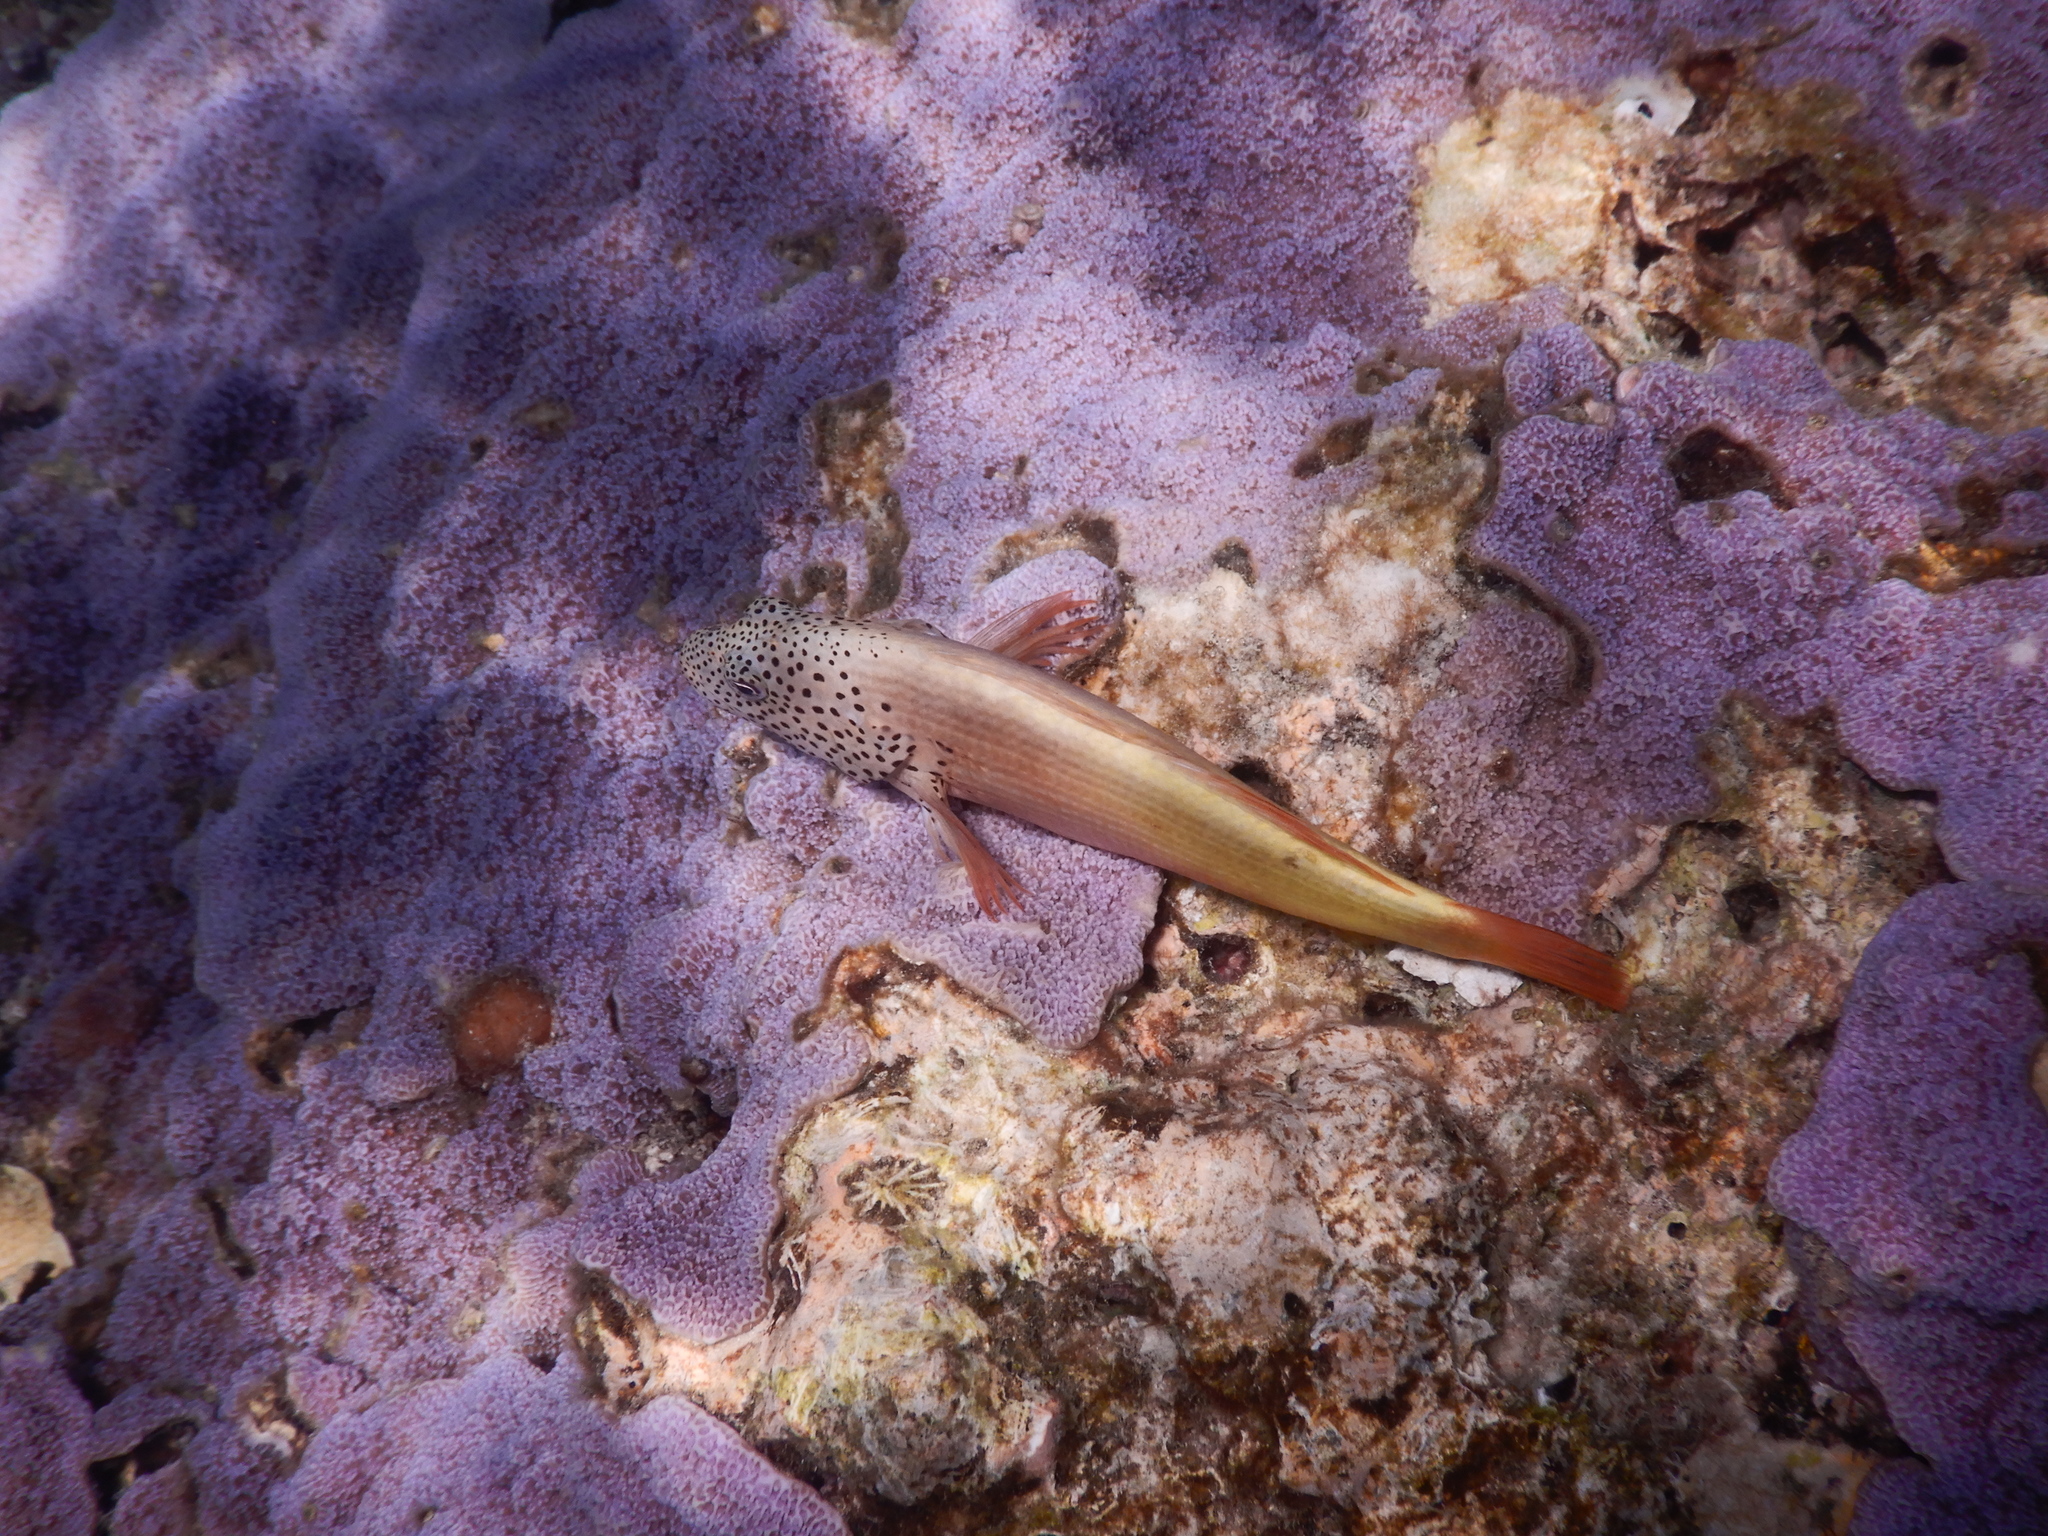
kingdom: Animalia
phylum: Chordata
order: Perciformes
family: Cirrhitidae
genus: Paracirrhites
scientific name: Paracirrhites forsteri
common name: Freckled hawkfish
